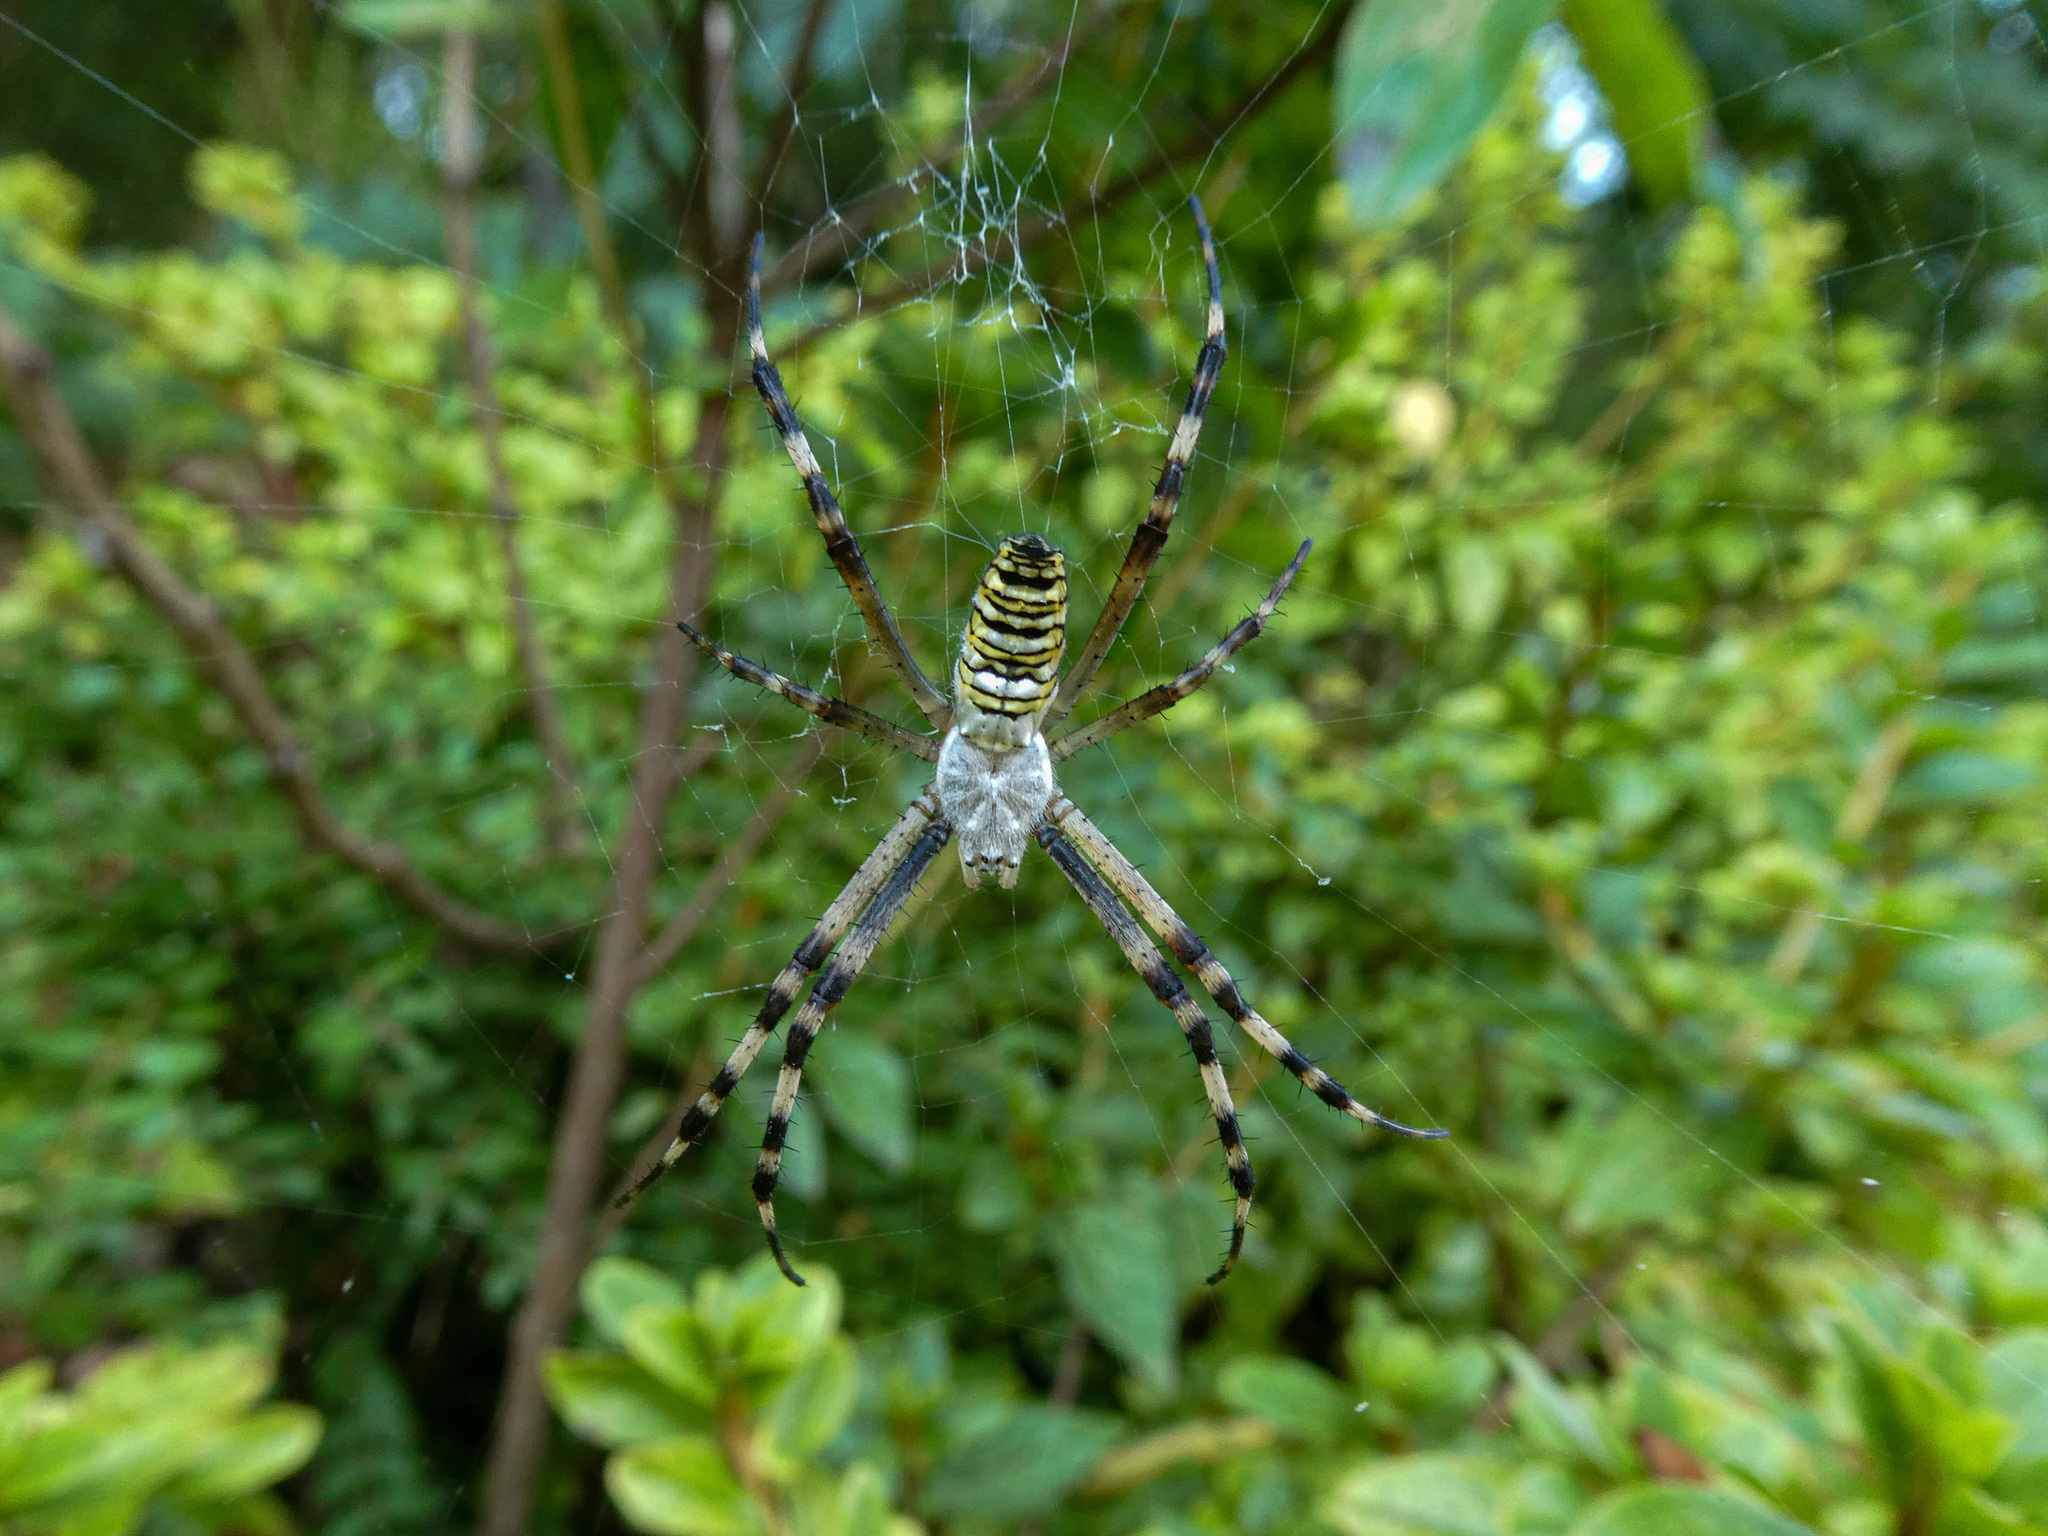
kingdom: Animalia
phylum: Arthropoda
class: Arachnida
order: Araneae
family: Araneidae
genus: Argiope
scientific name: Argiope bruennichi
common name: Wasp spider
